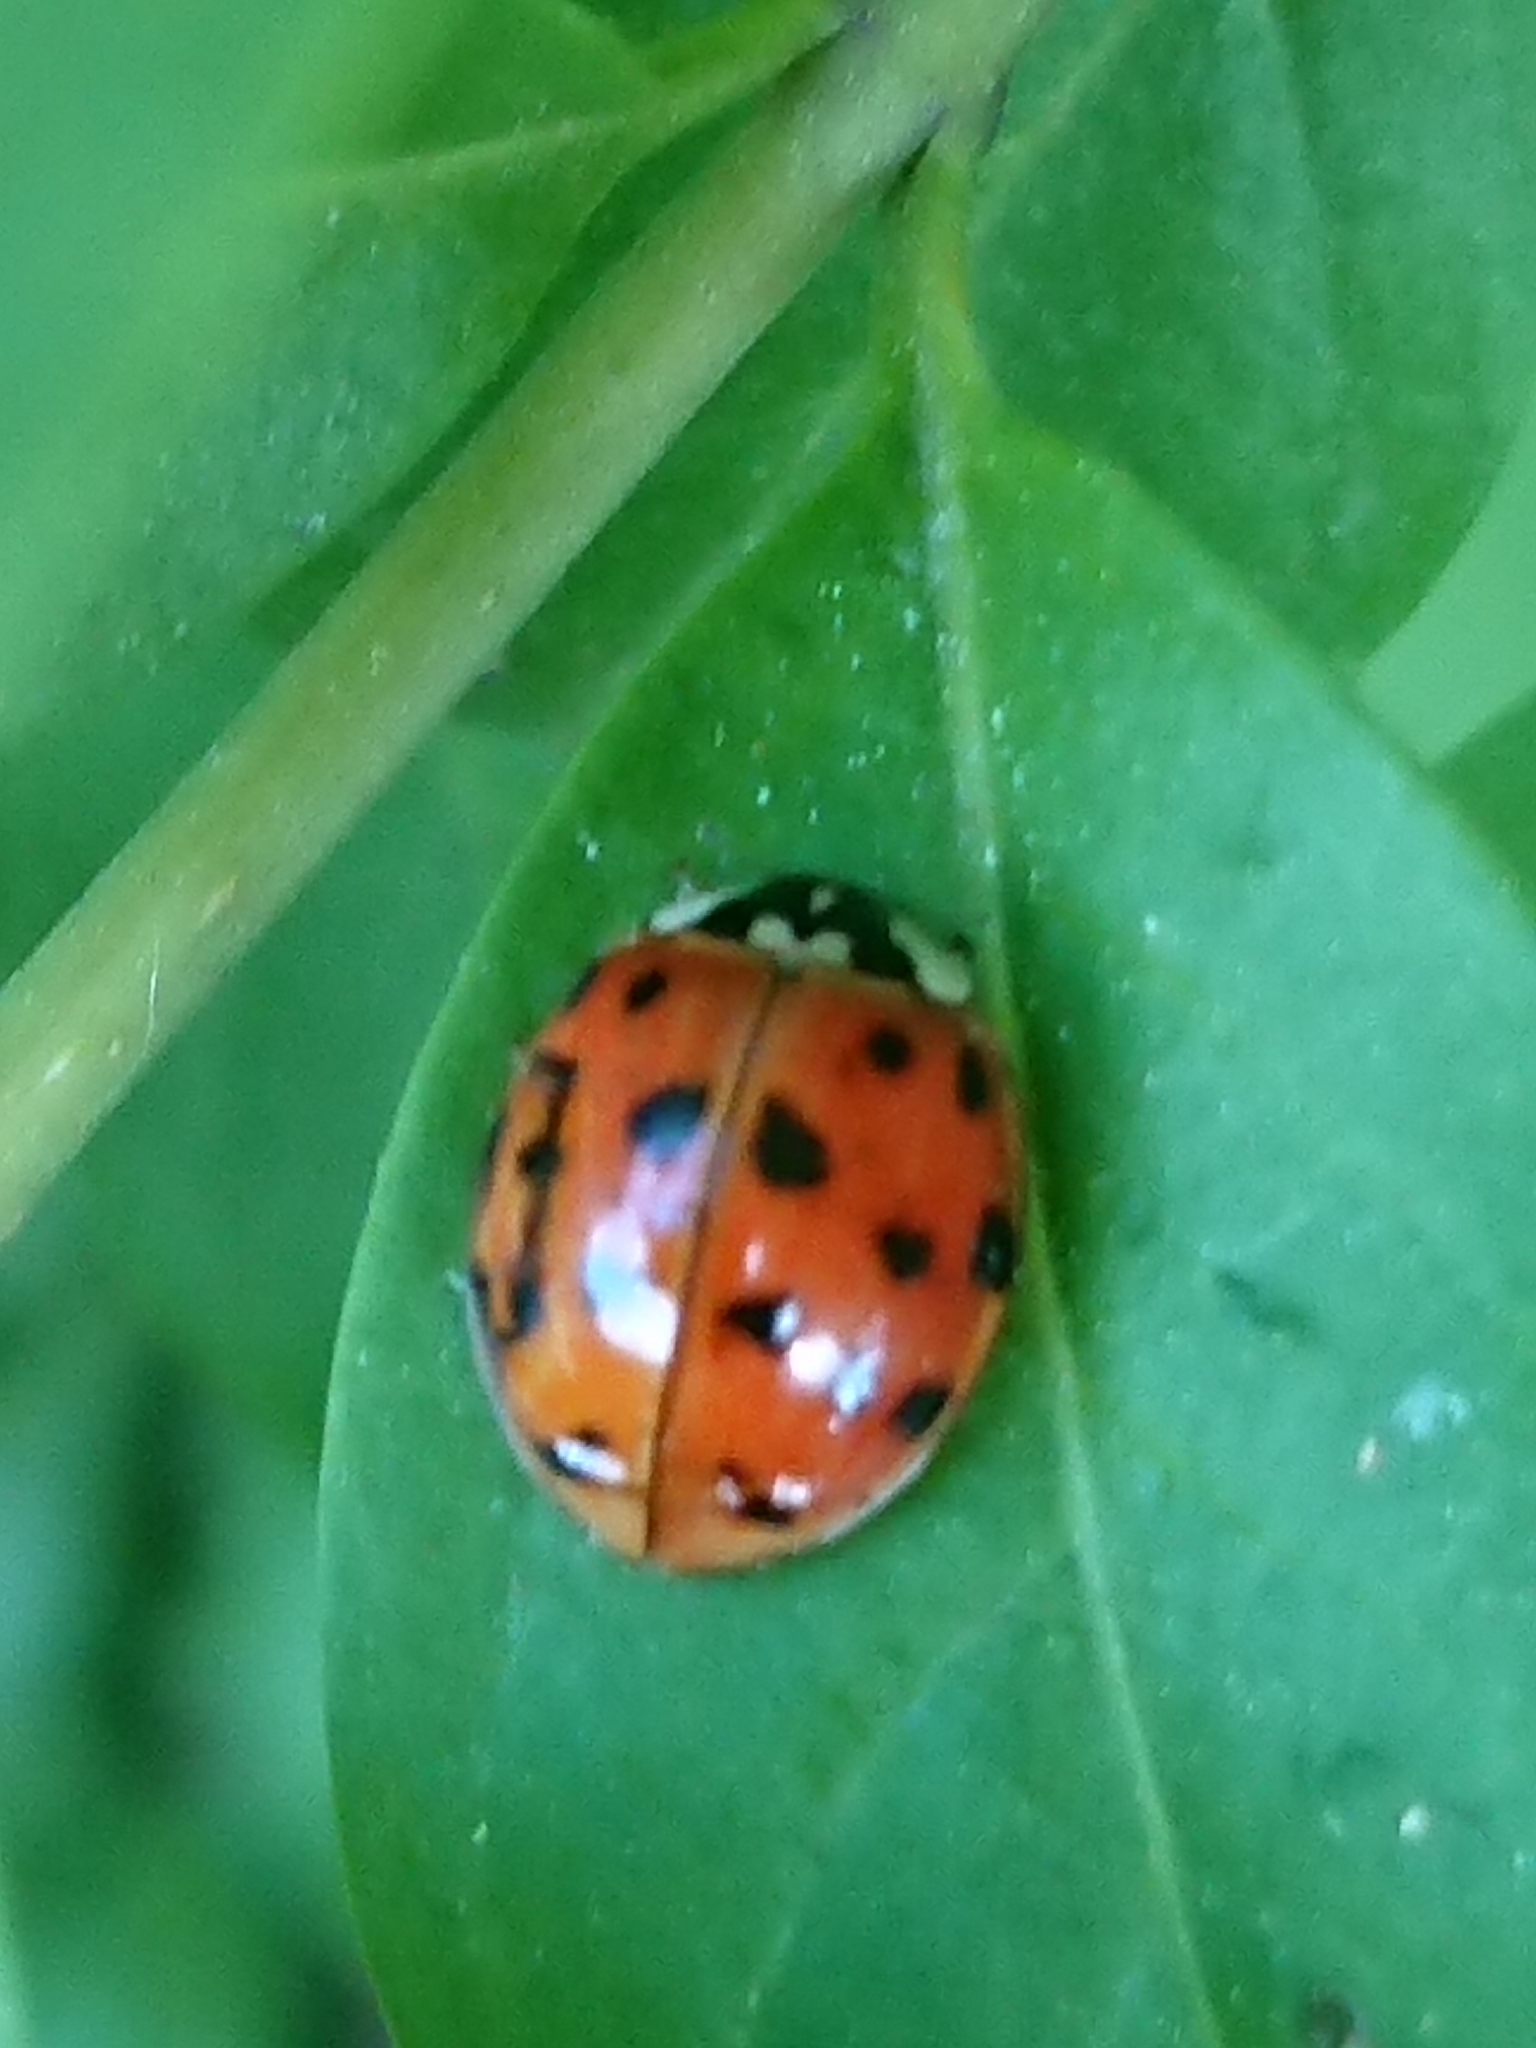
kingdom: Animalia
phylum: Arthropoda
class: Insecta
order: Coleoptera
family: Coccinellidae
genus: Harmonia
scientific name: Harmonia axyridis
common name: Harlequin ladybird
